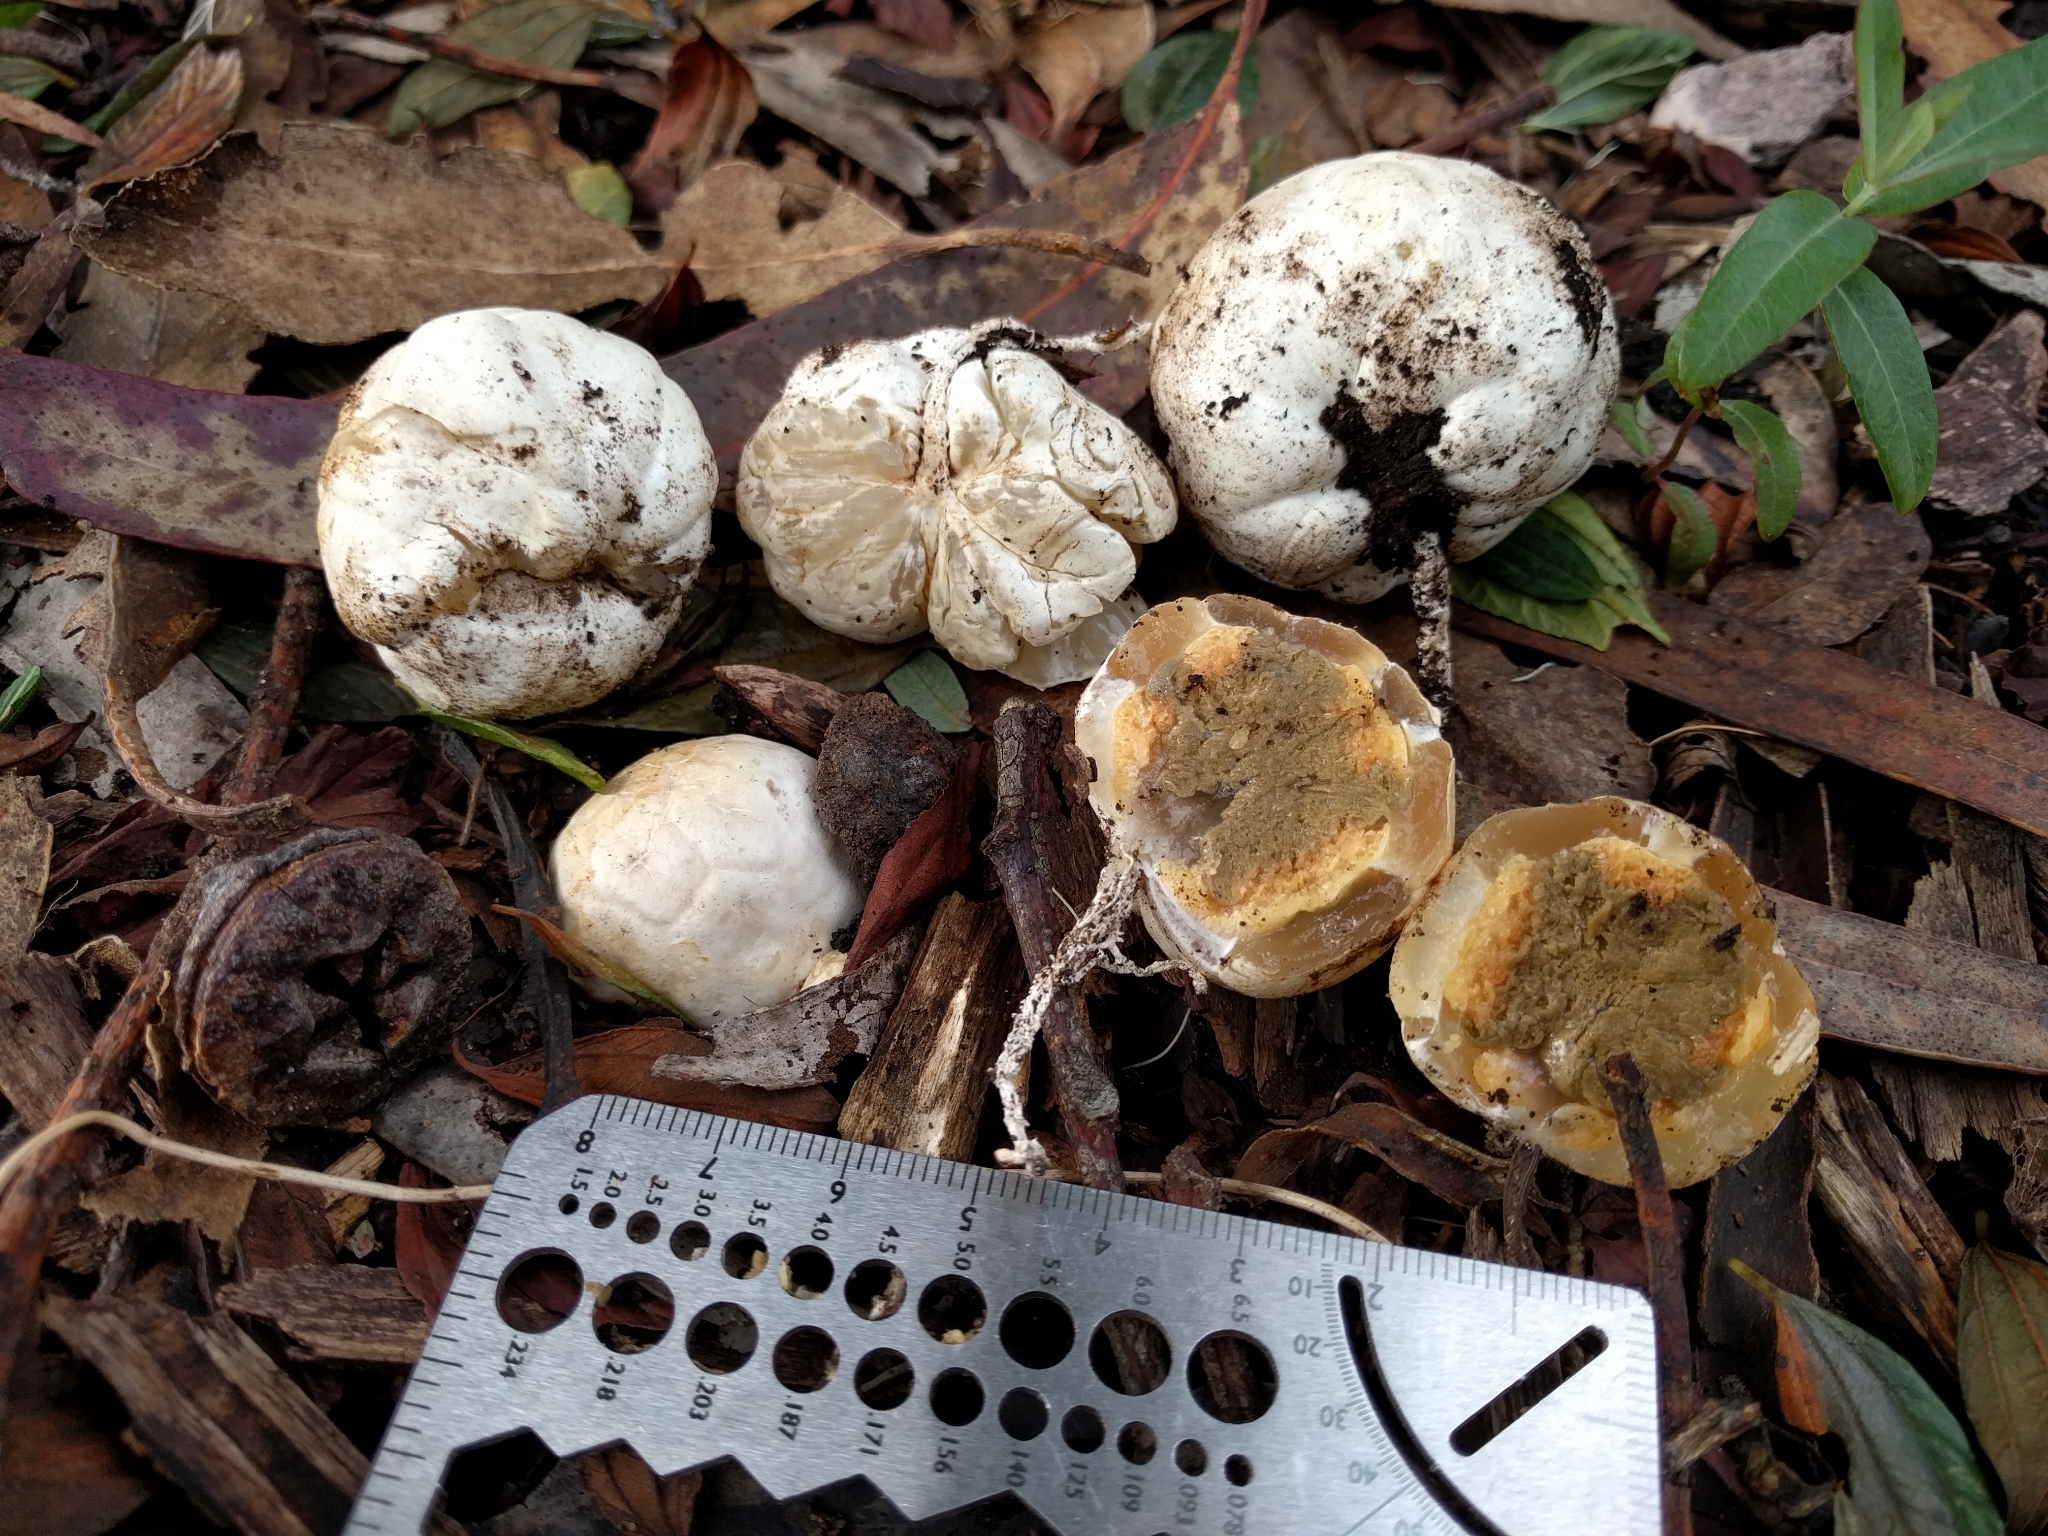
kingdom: Fungi
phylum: Basidiomycota
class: Agaricomycetes
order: Phallales
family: Phallaceae
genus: Clathrus
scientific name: Clathrus ruber
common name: Red cage
